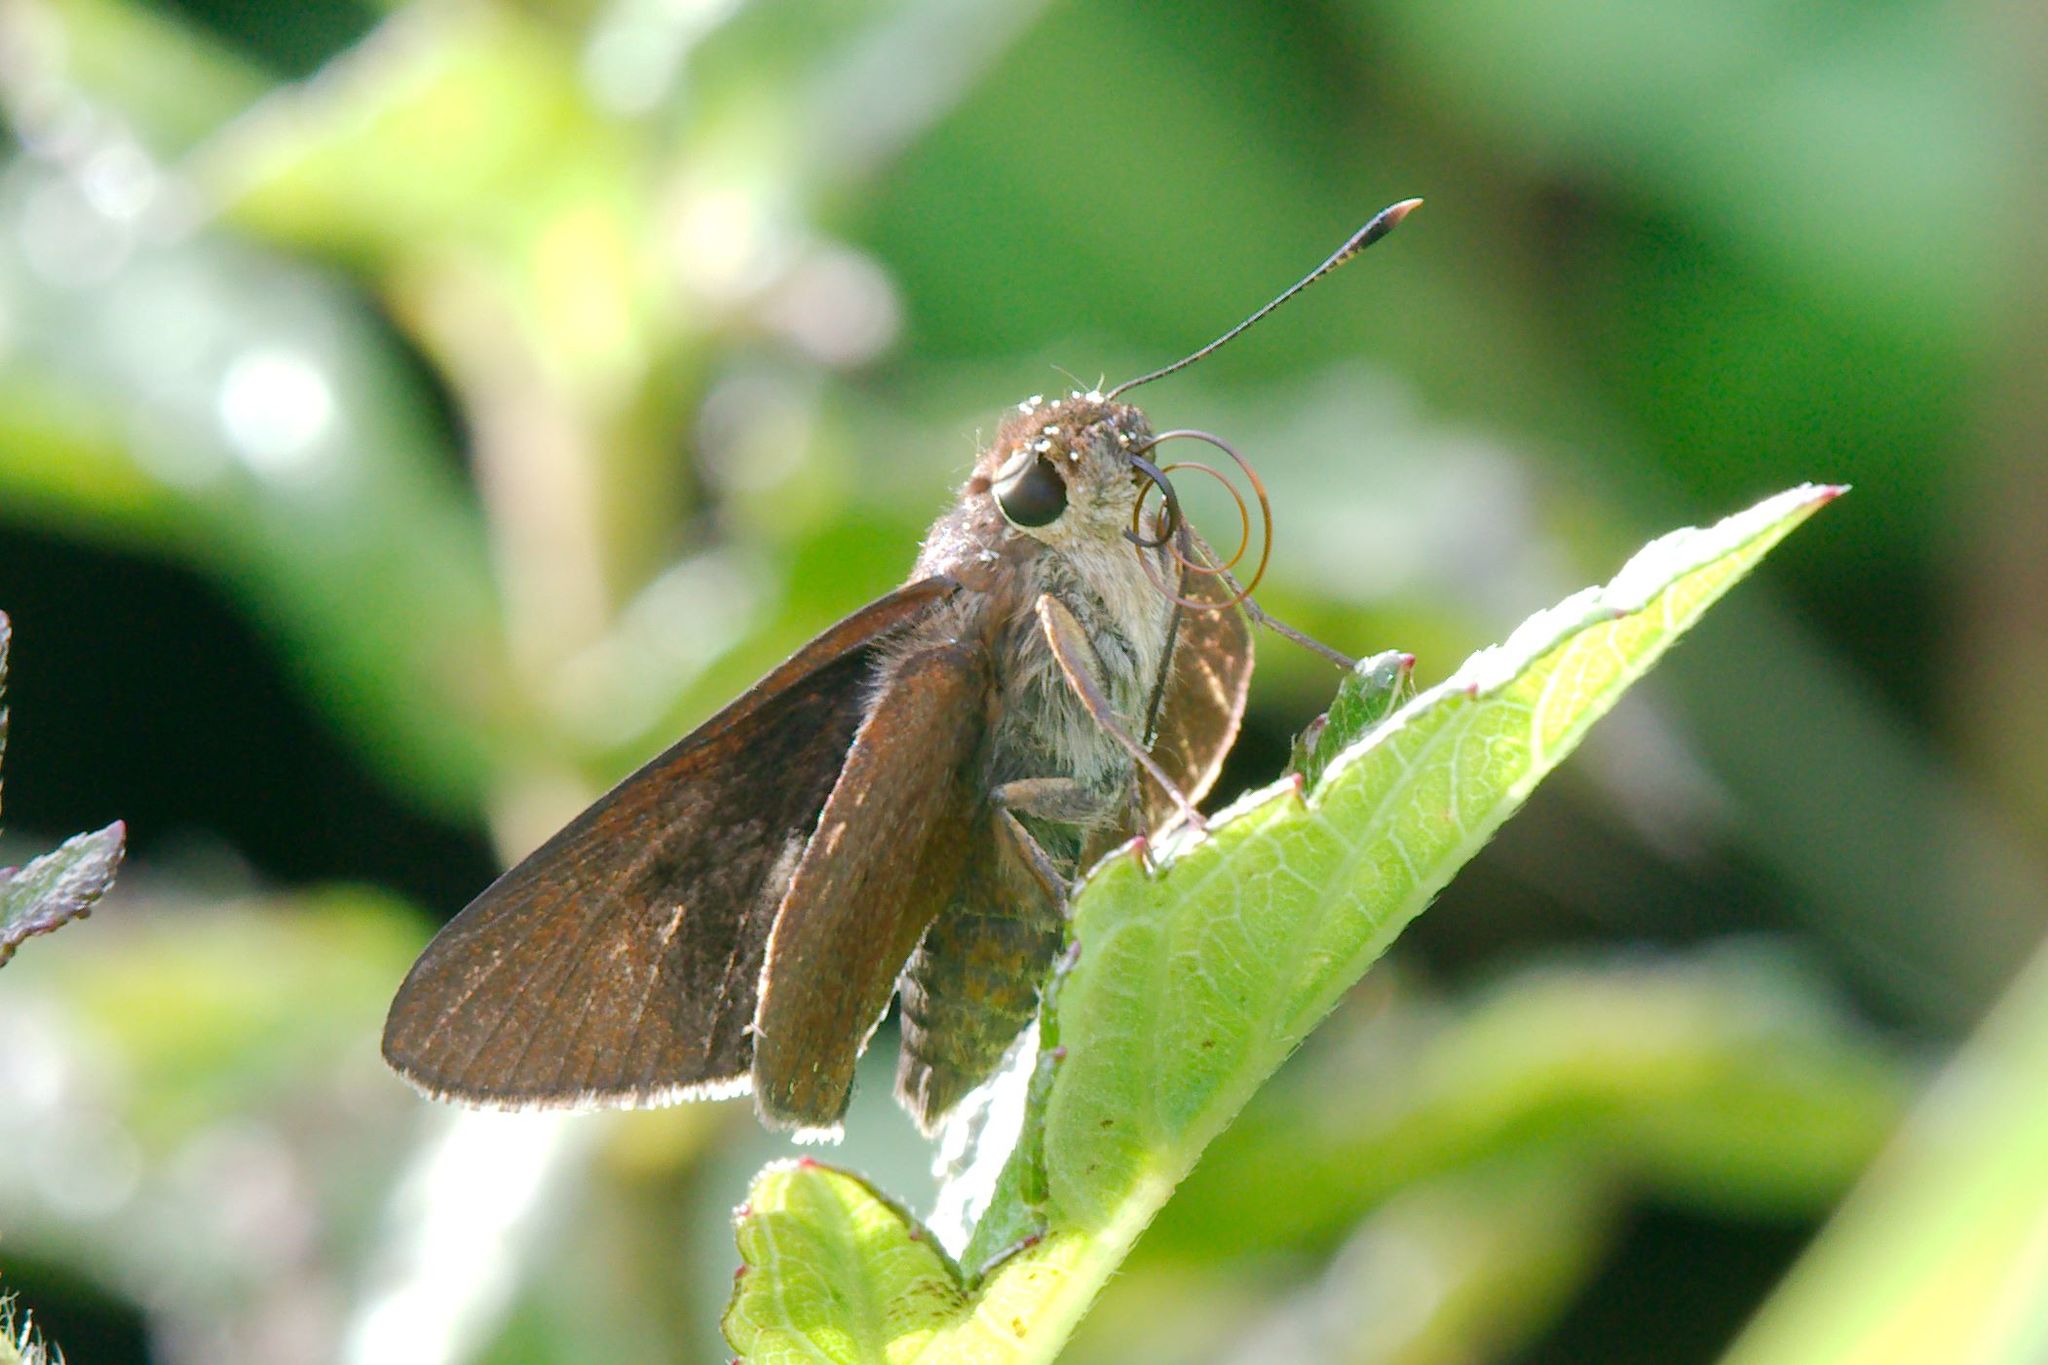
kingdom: Animalia
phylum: Arthropoda
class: Insecta
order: Lepidoptera
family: Hesperiidae
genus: Asbolis
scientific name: Asbolis capucinus
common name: Monk skipper
